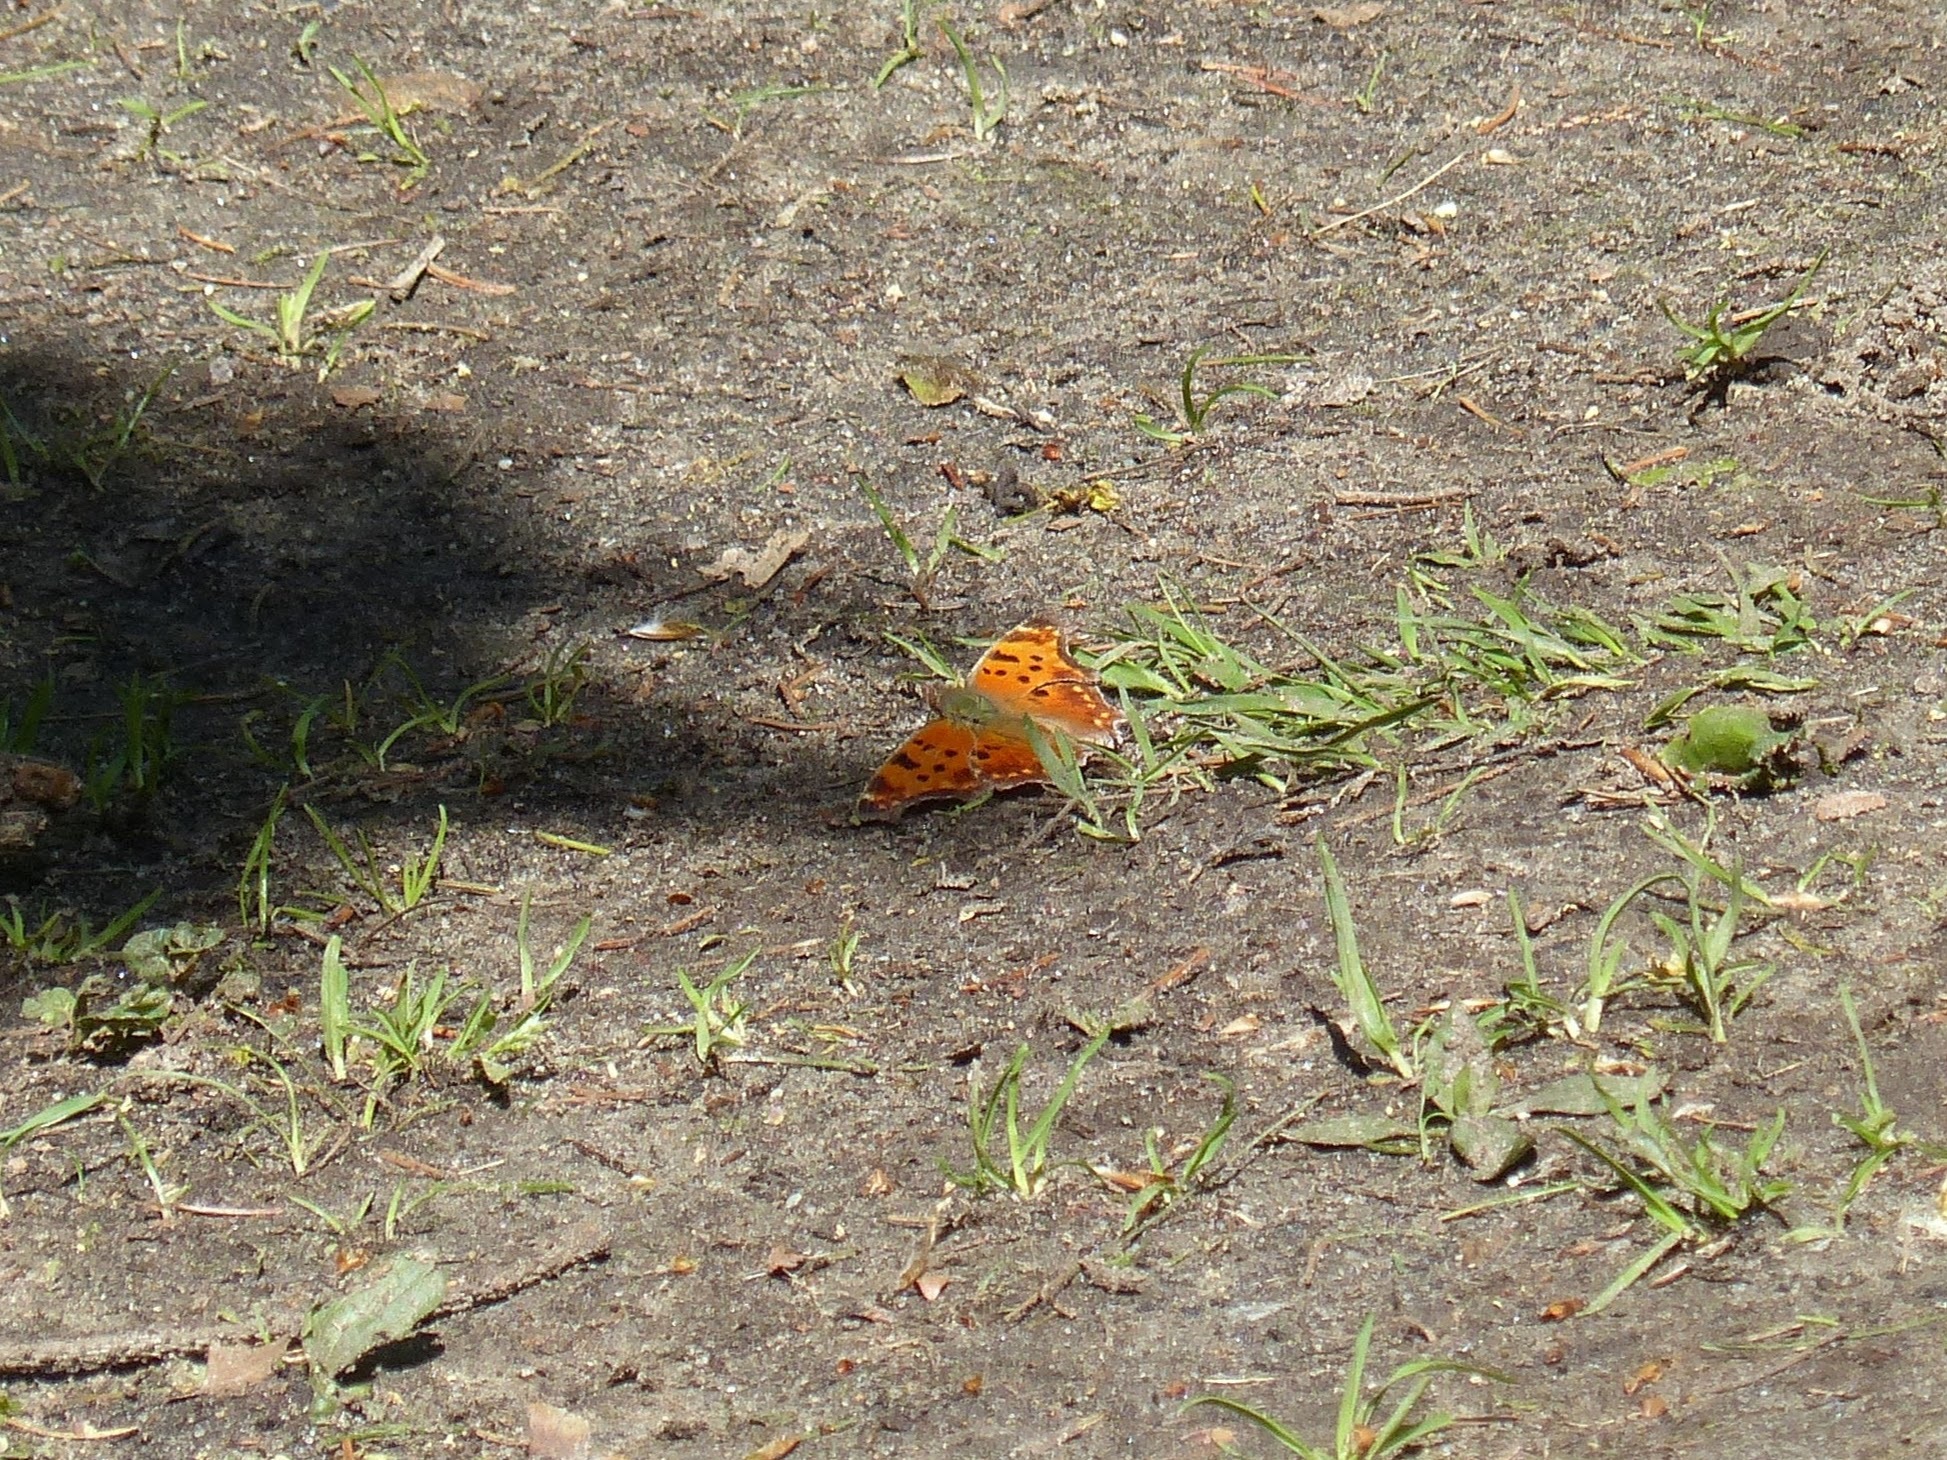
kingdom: Animalia
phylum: Arthropoda
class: Insecta
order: Lepidoptera
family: Nymphalidae
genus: Polygonia
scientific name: Polygonia comma
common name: Eastern comma
